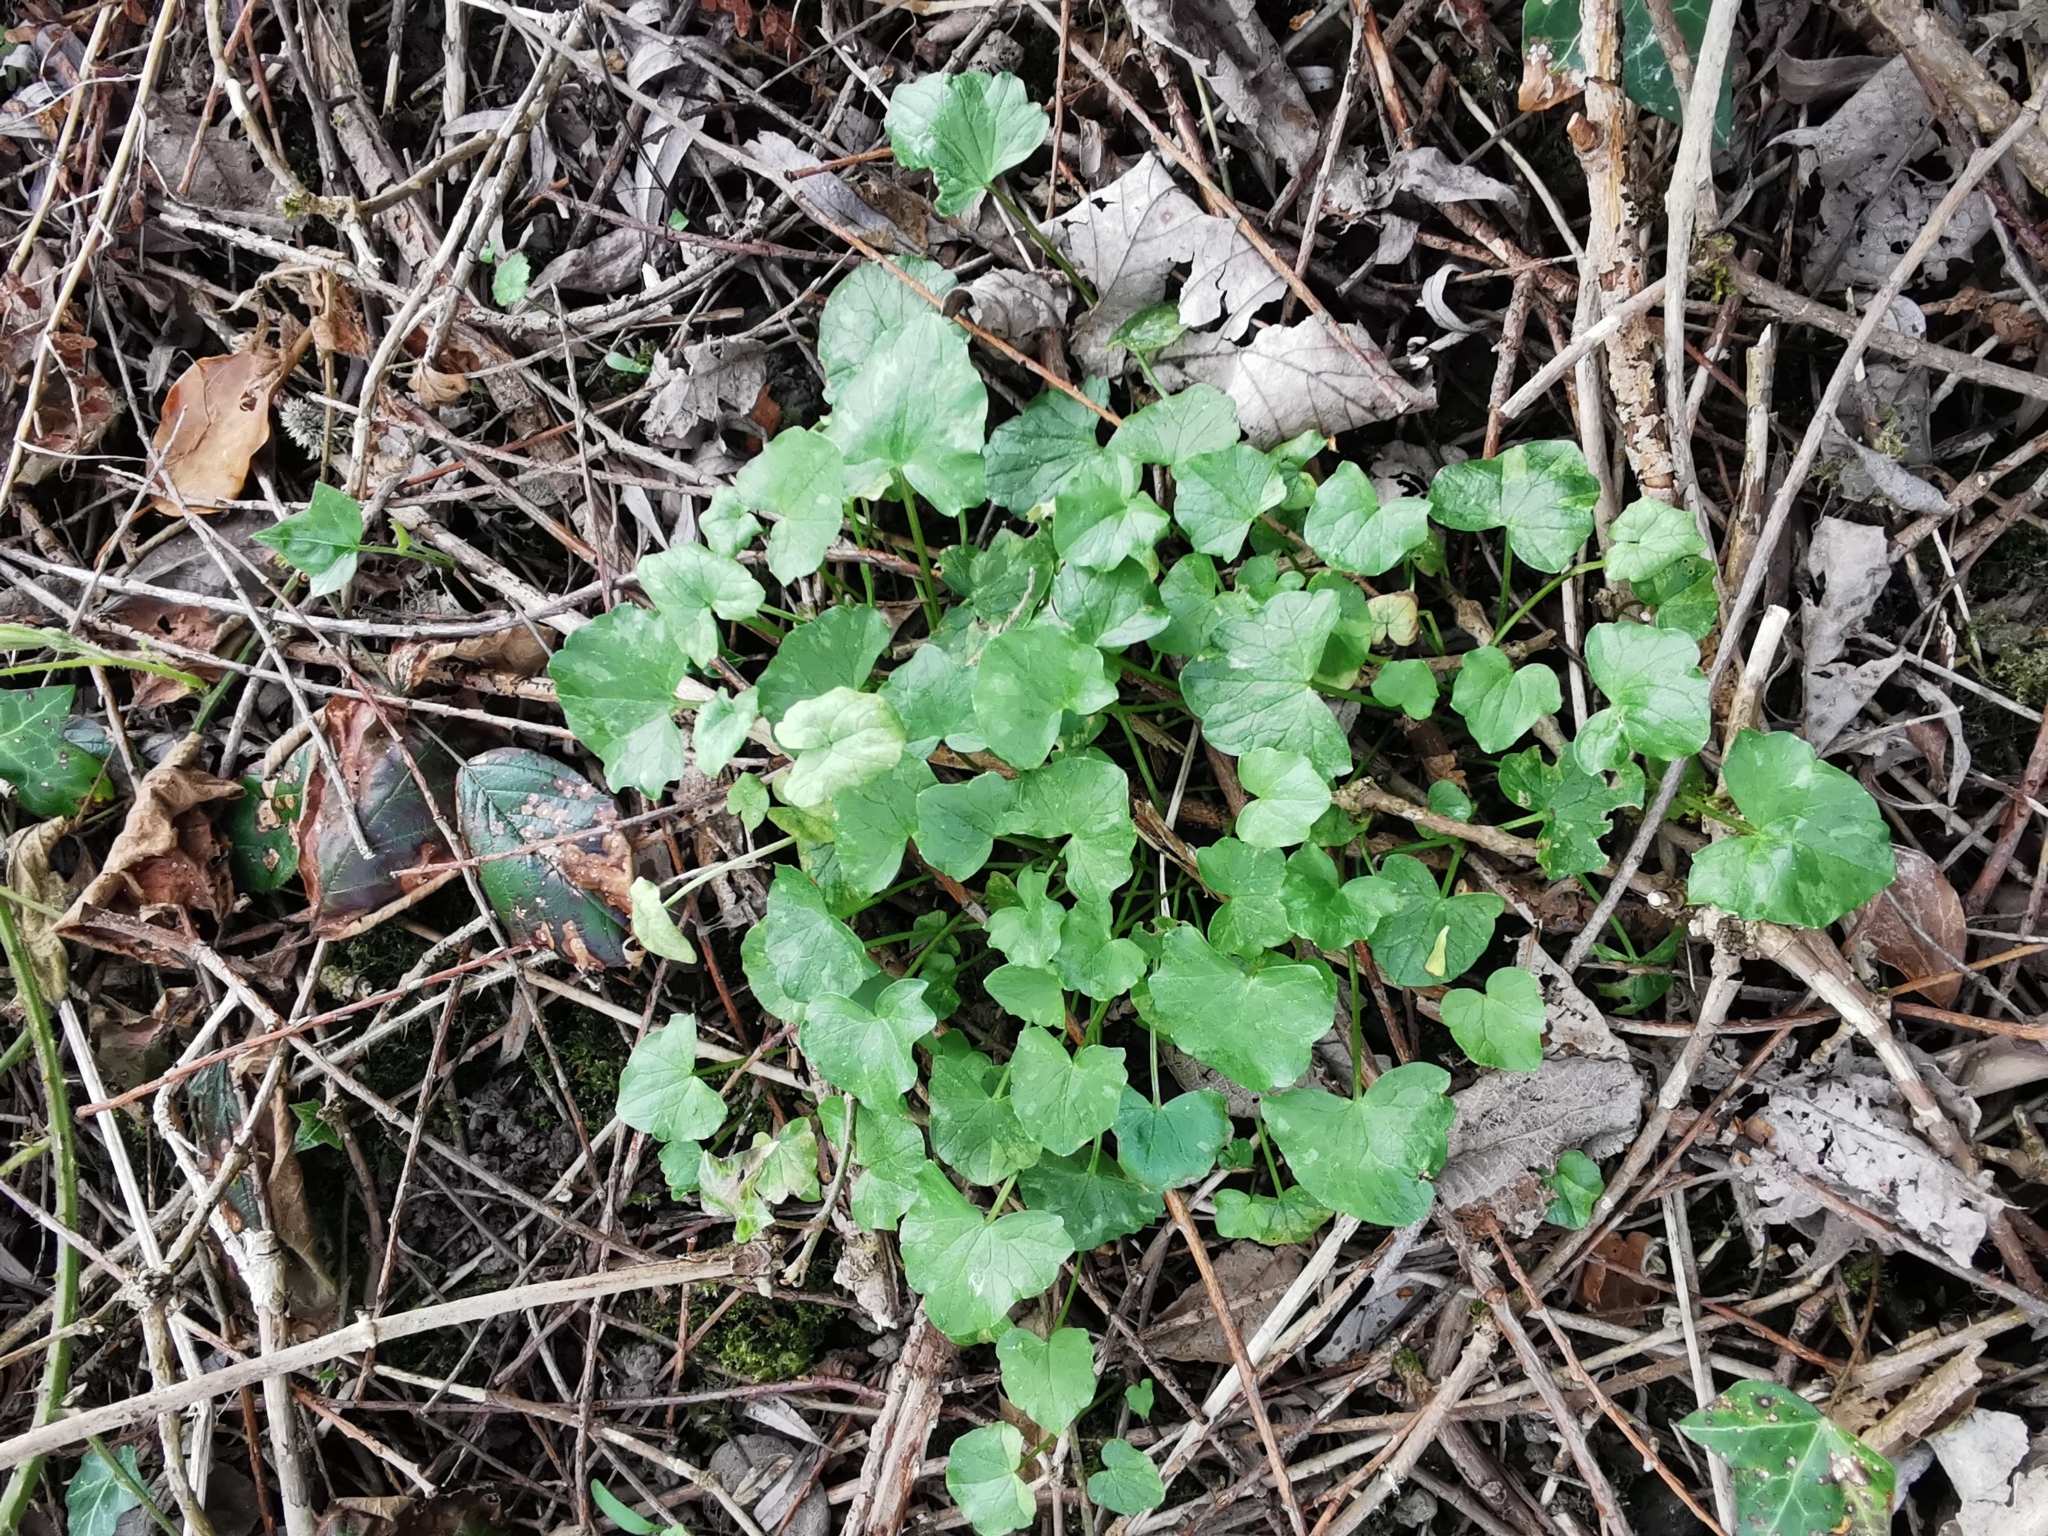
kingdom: Plantae
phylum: Tracheophyta
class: Magnoliopsida
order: Ranunculales
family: Ranunculaceae
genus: Ficaria
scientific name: Ficaria verna
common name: Lesser celandine
